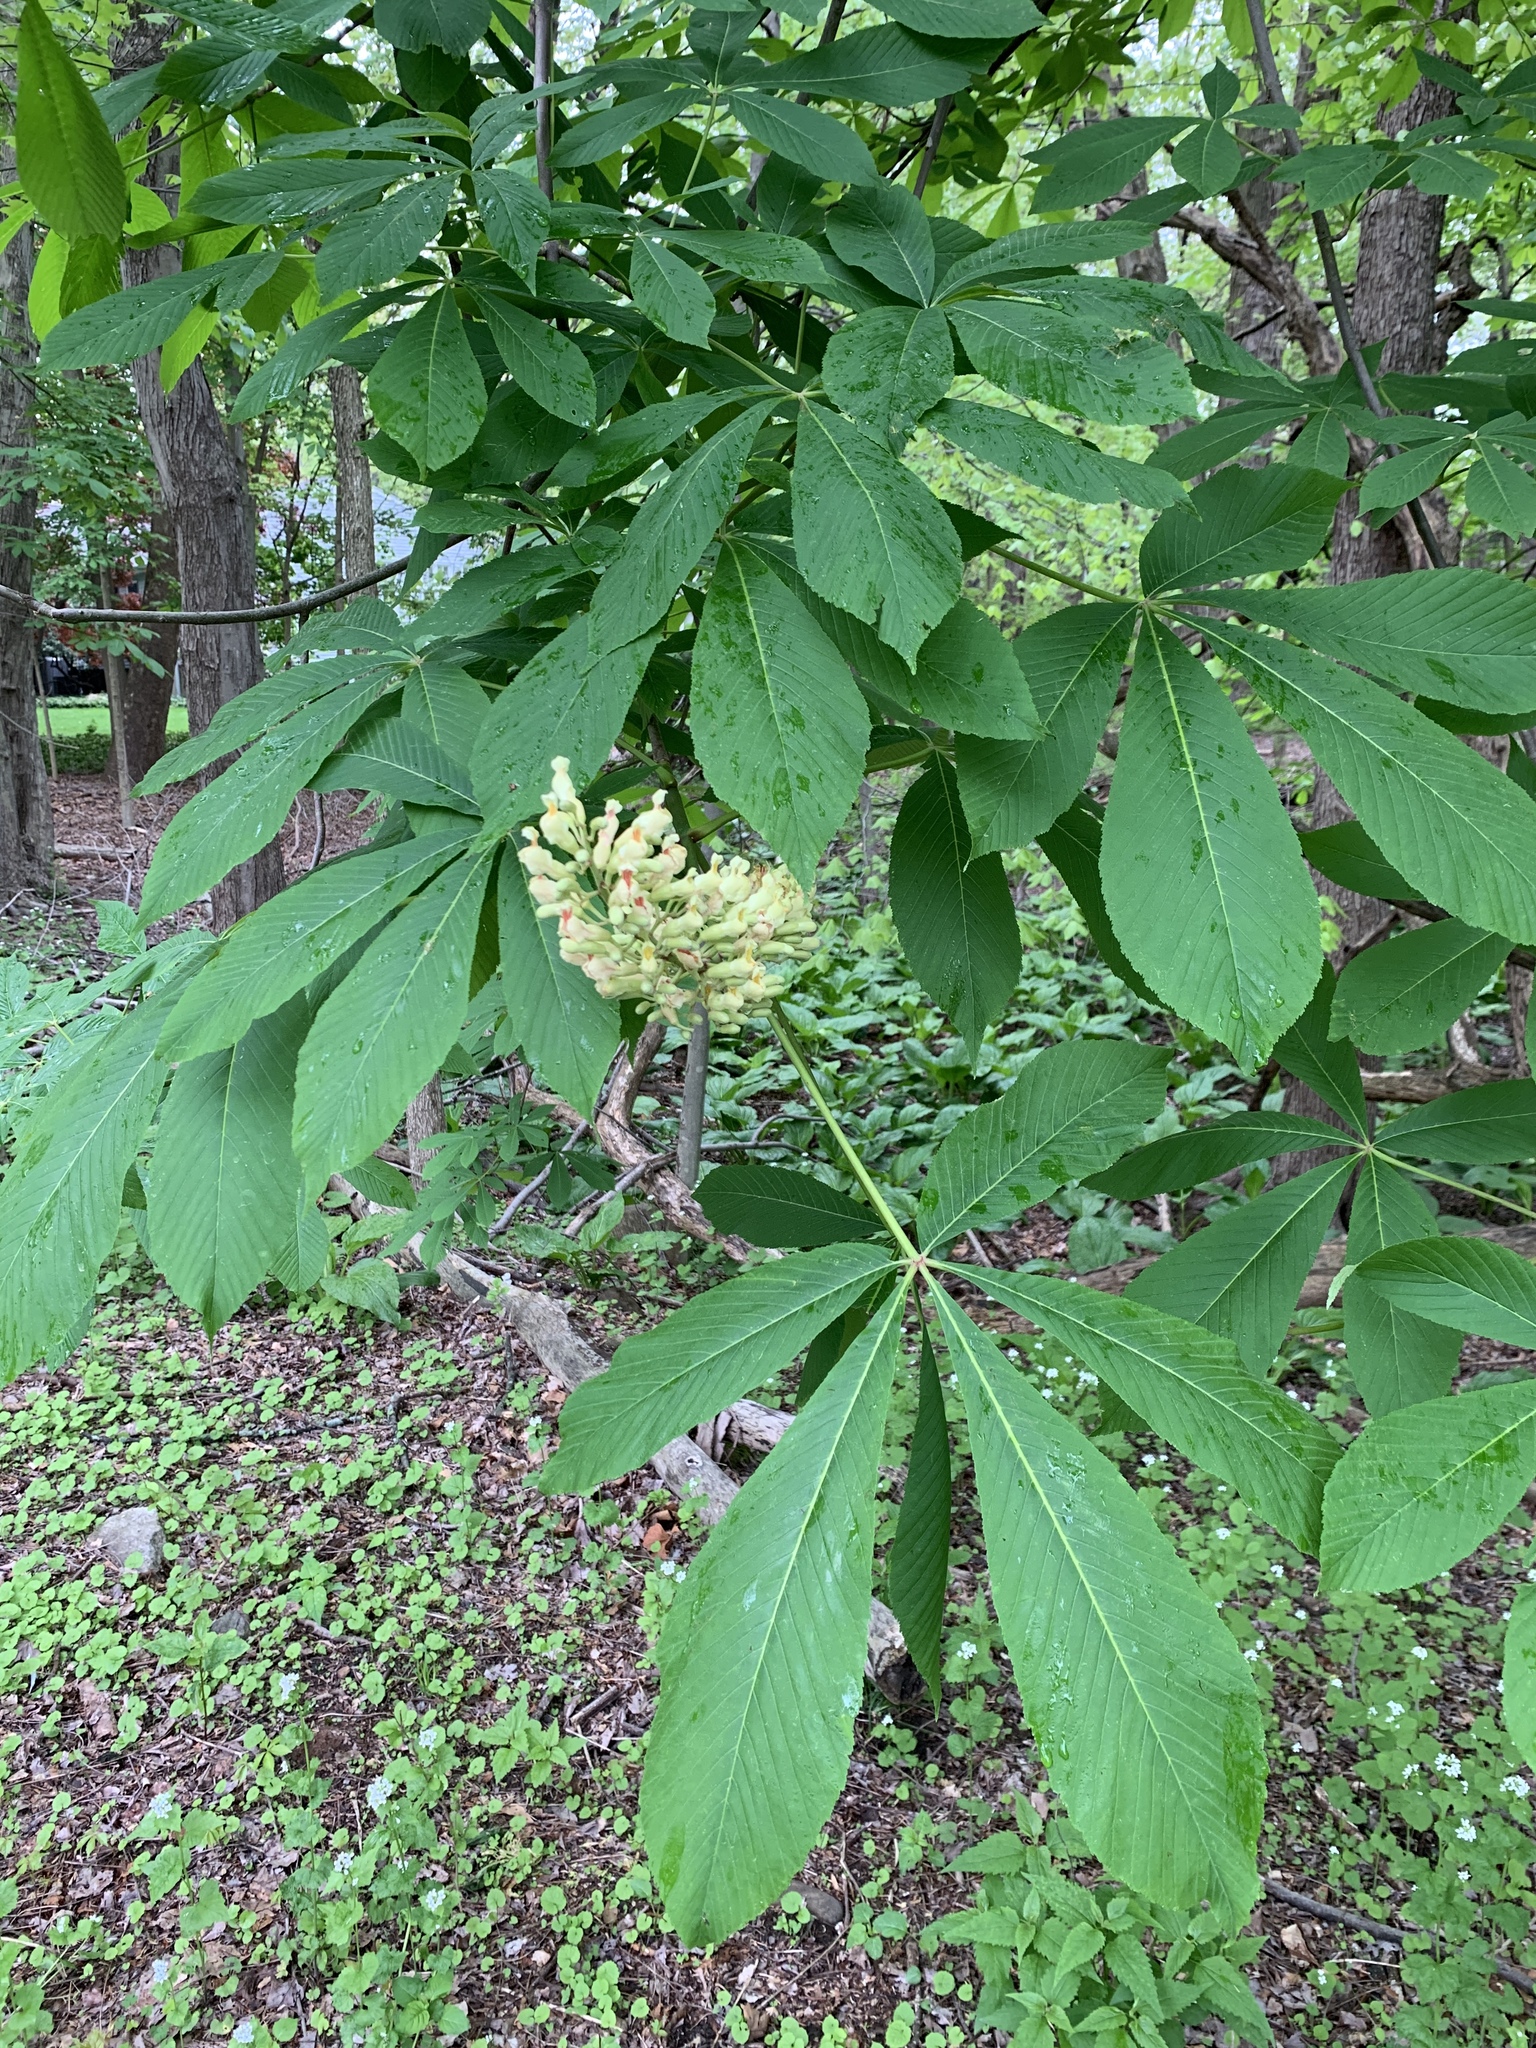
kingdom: Plantae
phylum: Tracheophyta
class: Magnoliopsida
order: Sapindales
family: Sapindaceae
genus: Aesculus
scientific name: Aesculus flava
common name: Yellow buckeye
